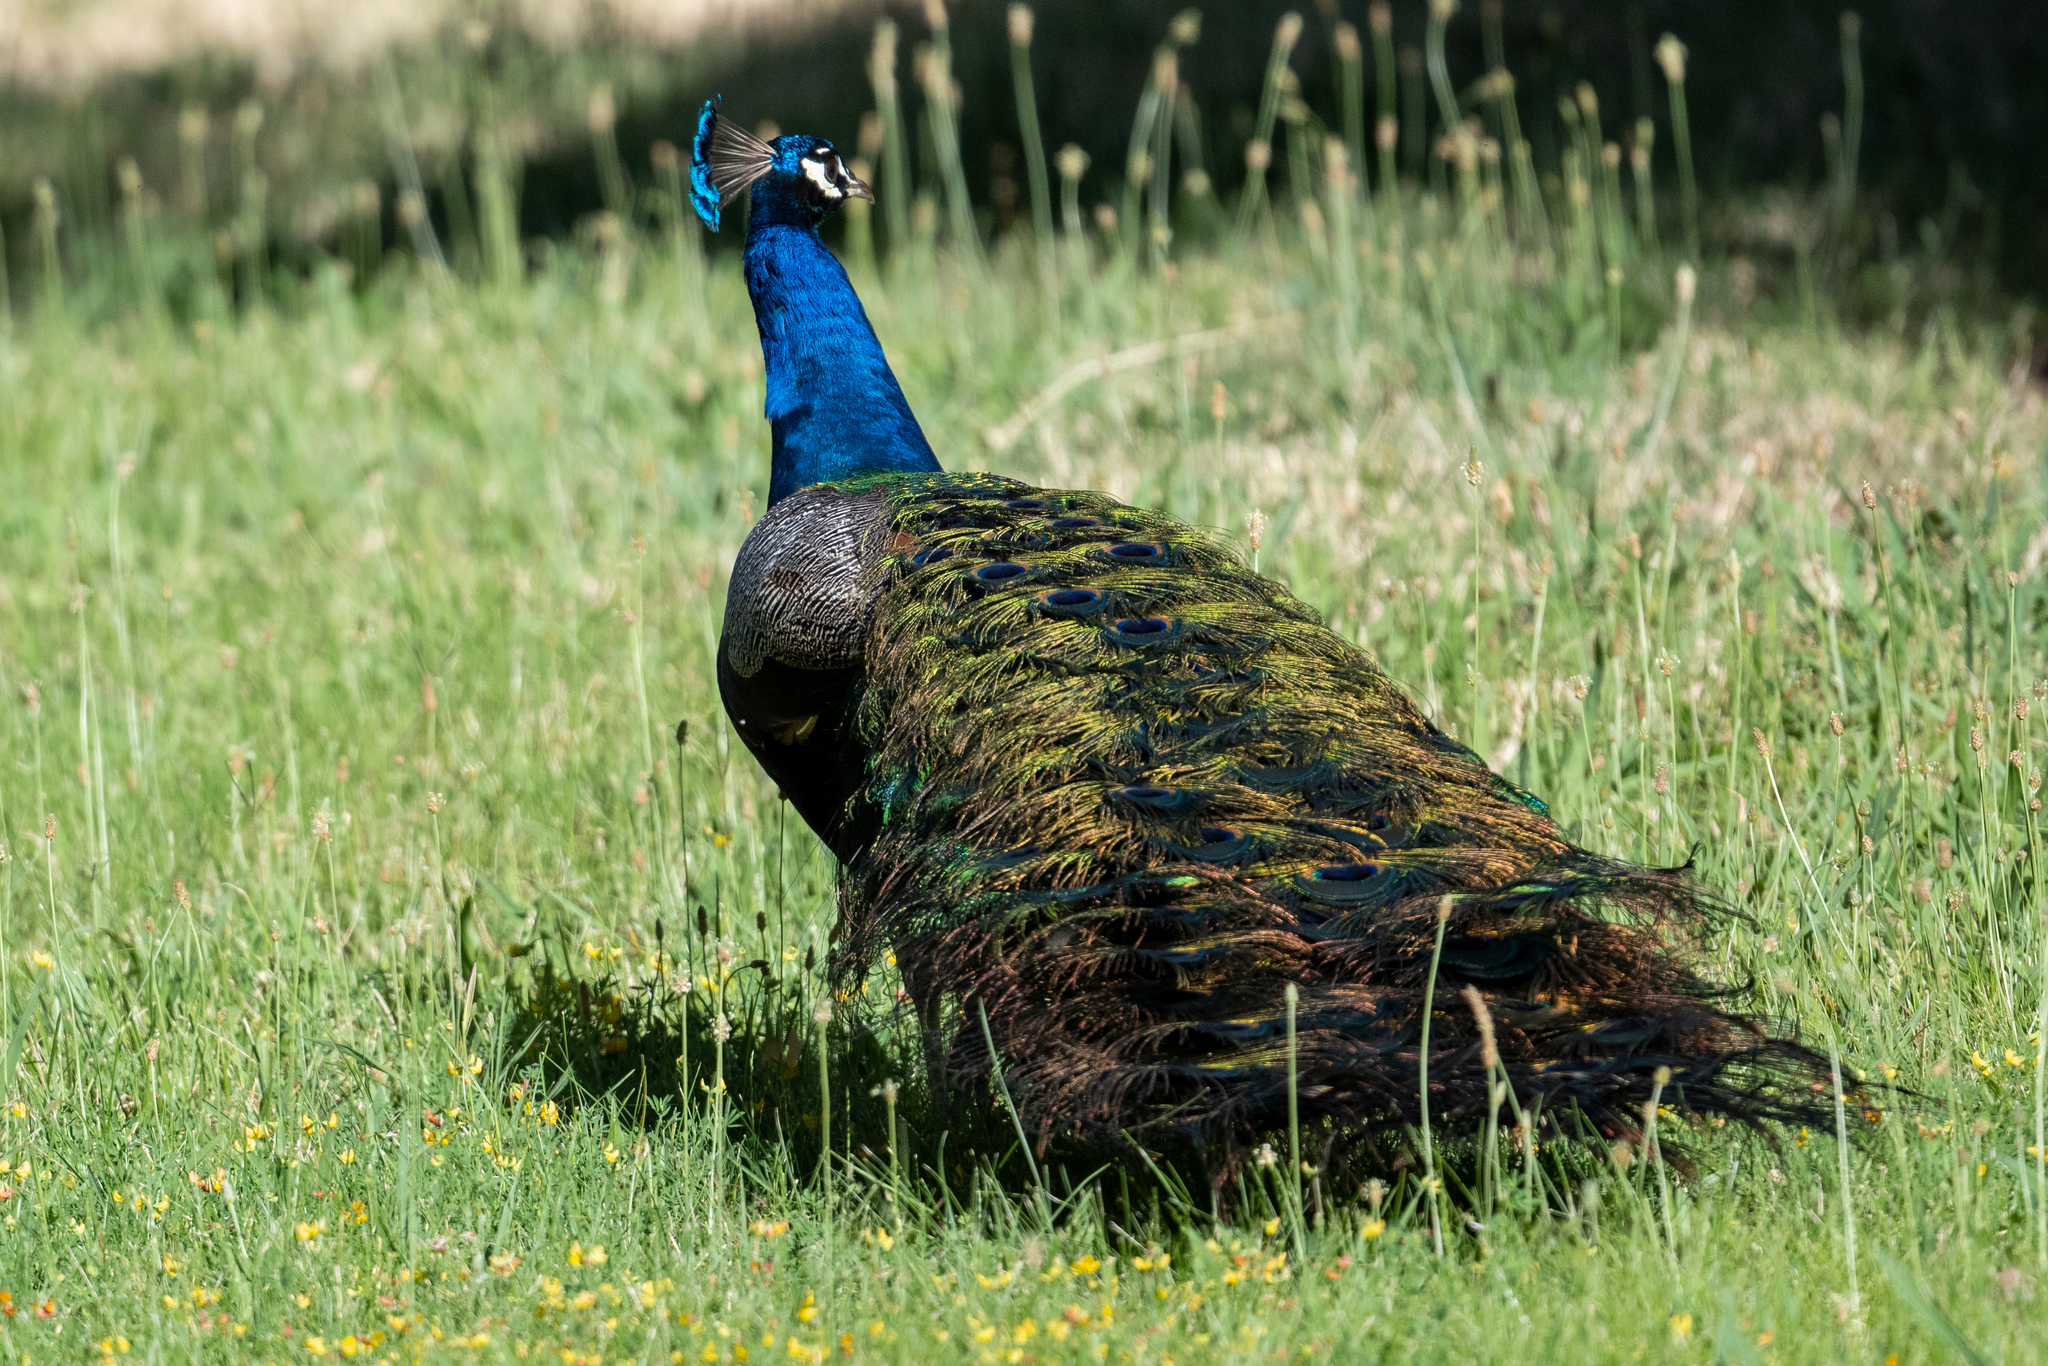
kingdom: Animalia
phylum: Chordata
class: Aves
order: Galliformes
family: Phasianidae
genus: Pavo
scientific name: Pavo cristatus
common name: Indian peafowl
